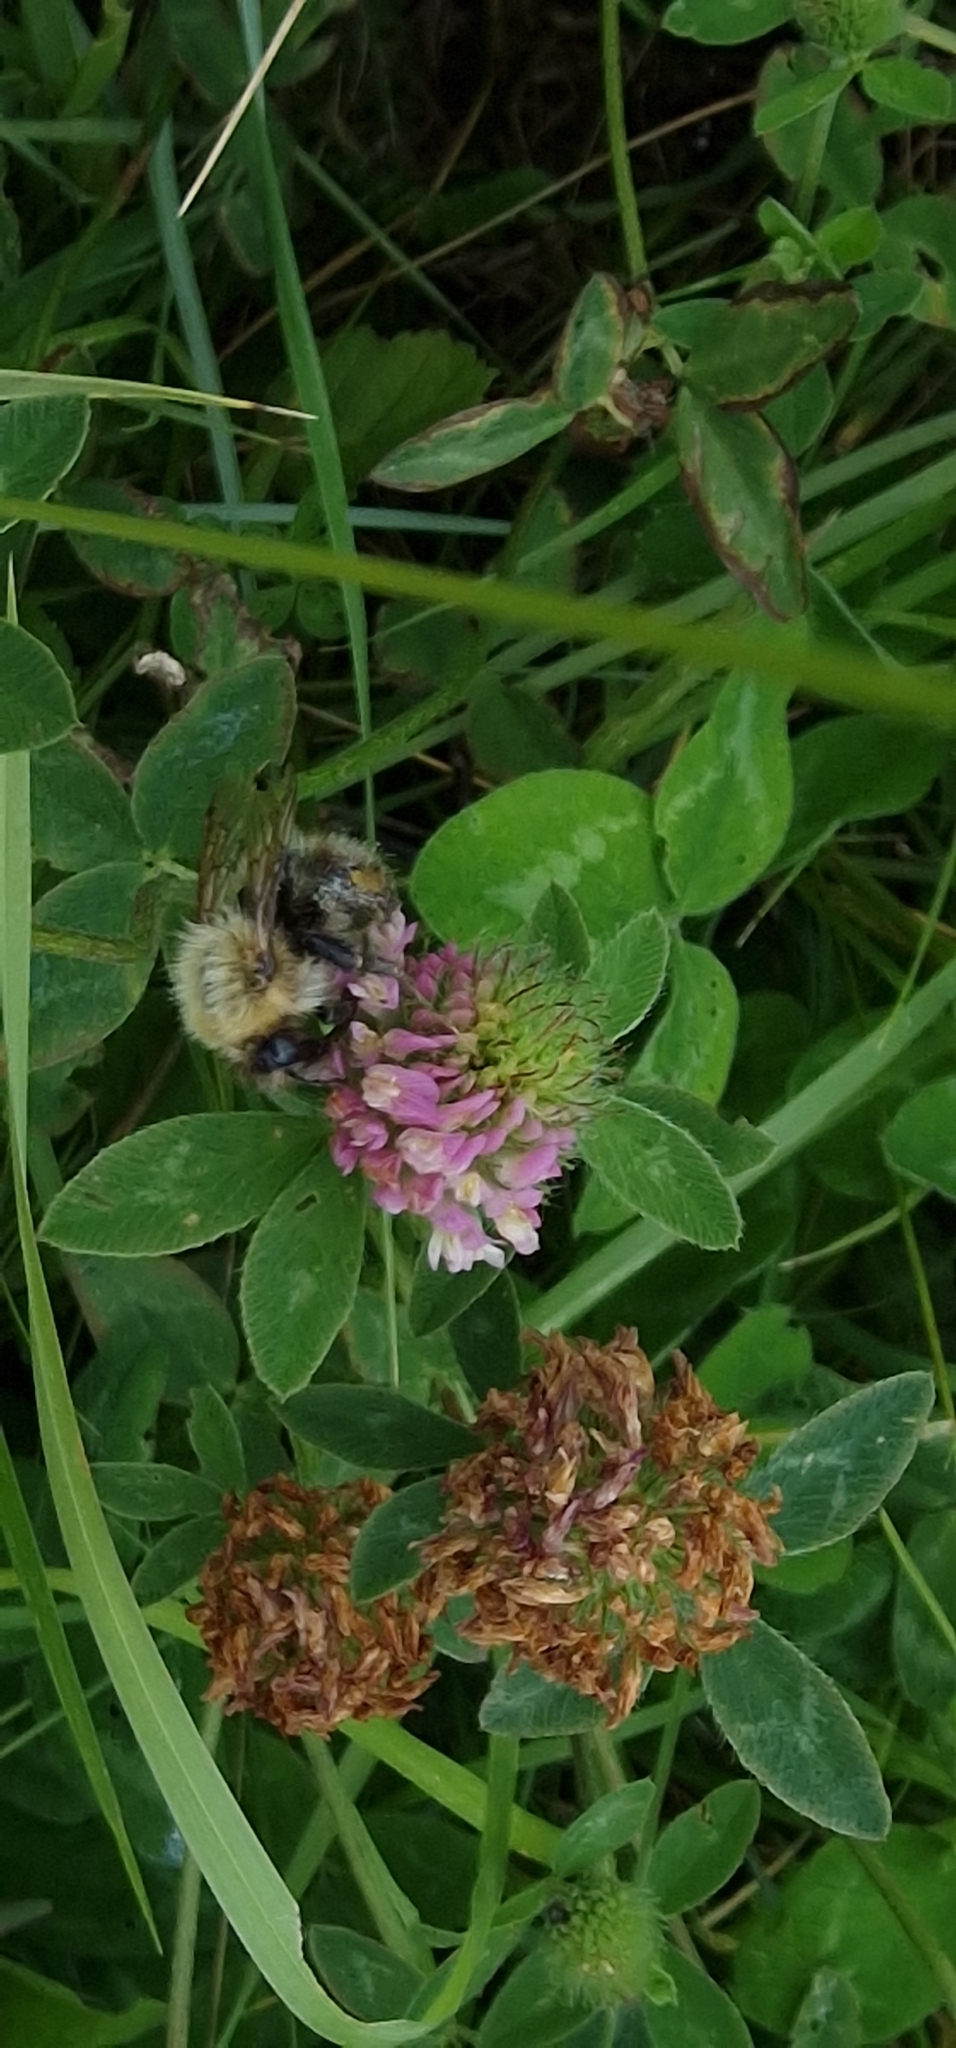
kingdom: Plantae
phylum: Tracheophyta
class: Magnoliopsida
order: Fabales
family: Fabaceae
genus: Trifolium
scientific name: Trifolium pratense
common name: Red clover
